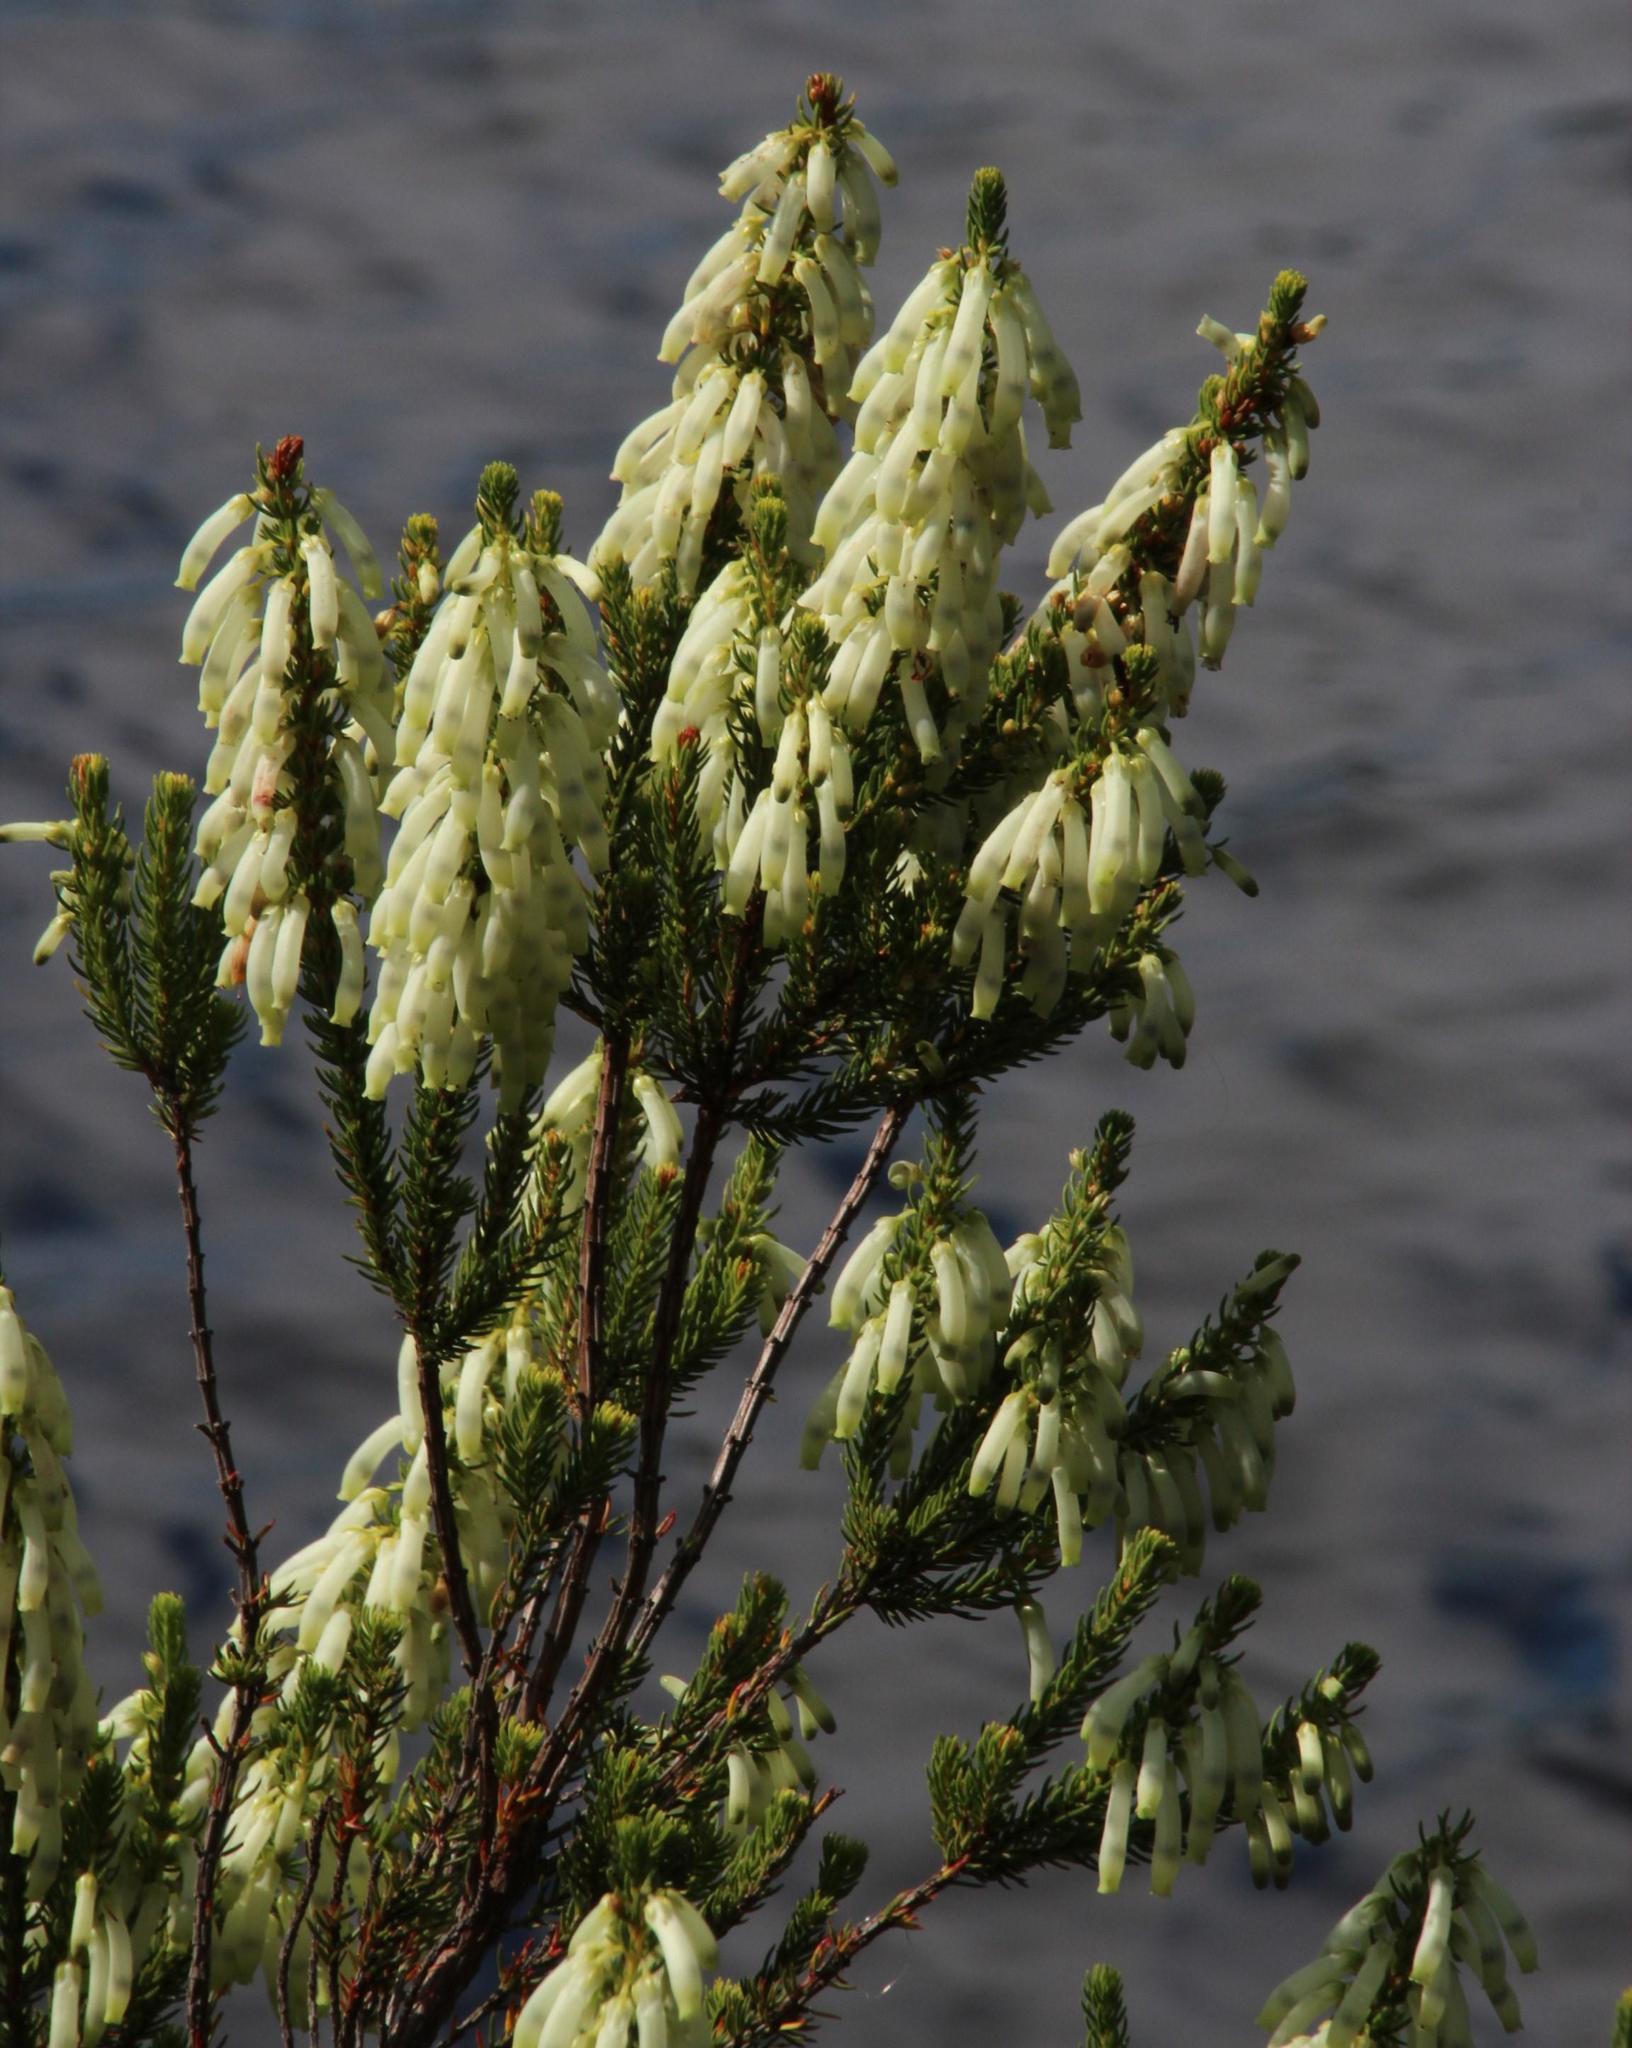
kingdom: Plantae
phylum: Tracheophyta
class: Magnoliopsida
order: Ericales
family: Ericaceae
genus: Erica
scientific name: Erica mammosa
